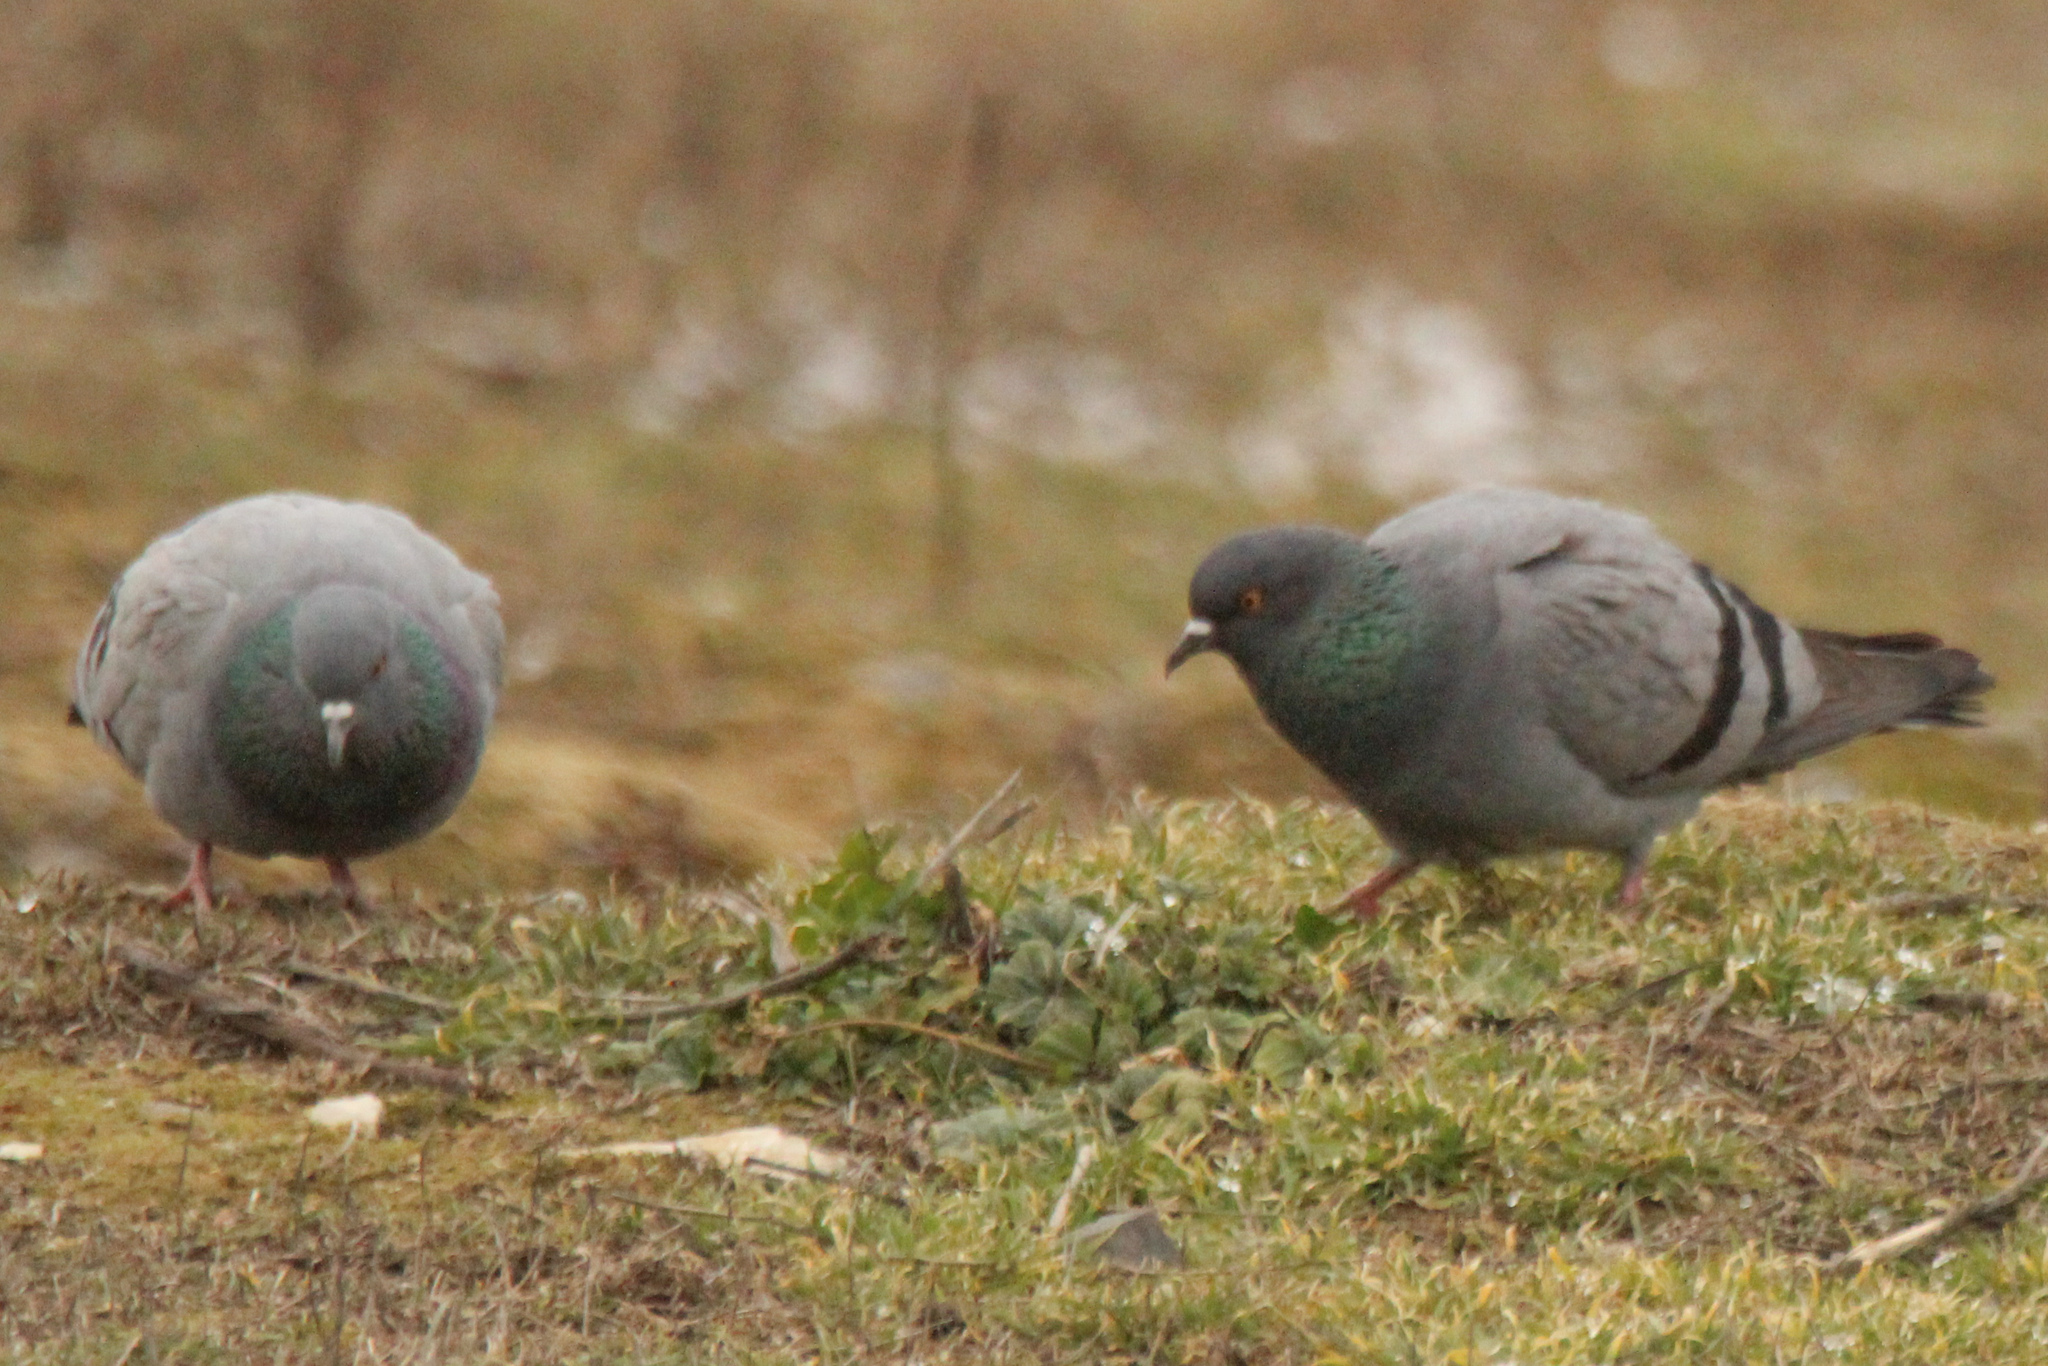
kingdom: Animalia
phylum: Chordata
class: Aves
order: Columbiformes
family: Columbidae
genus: Columba
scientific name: Columba livia
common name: Rock pigeon
